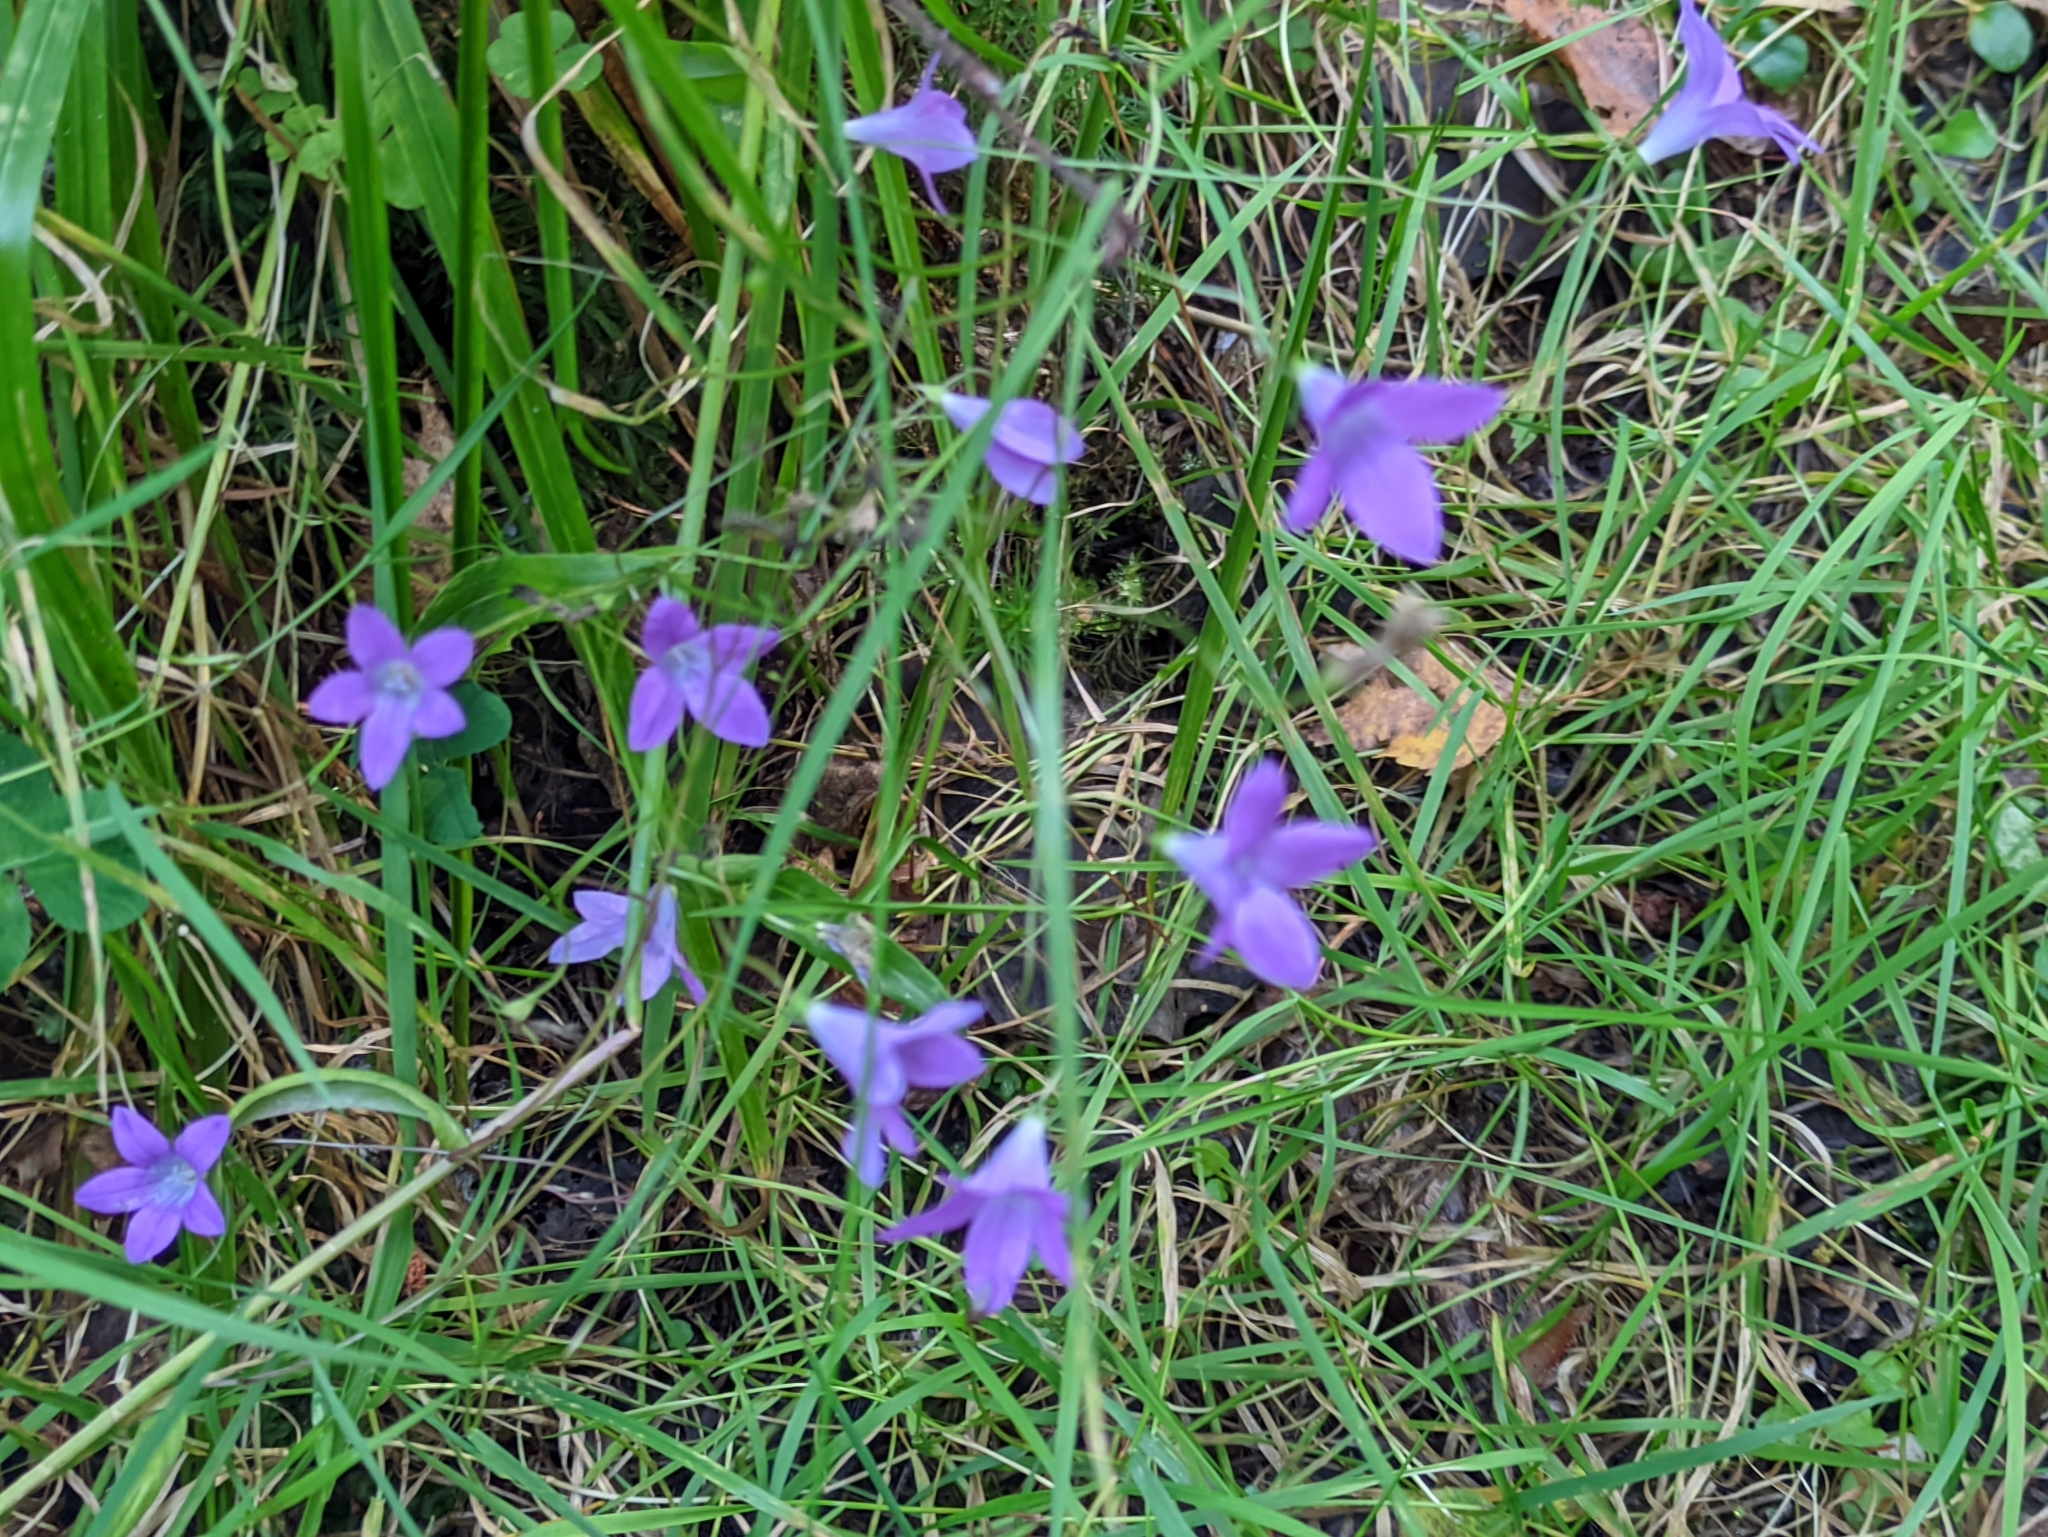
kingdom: Plantae
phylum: Tracheophyta
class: Magnoliopsida
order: Asterales
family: Campanulaceae
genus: Campanula
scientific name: Campanula patula
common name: Spreading bellflower
